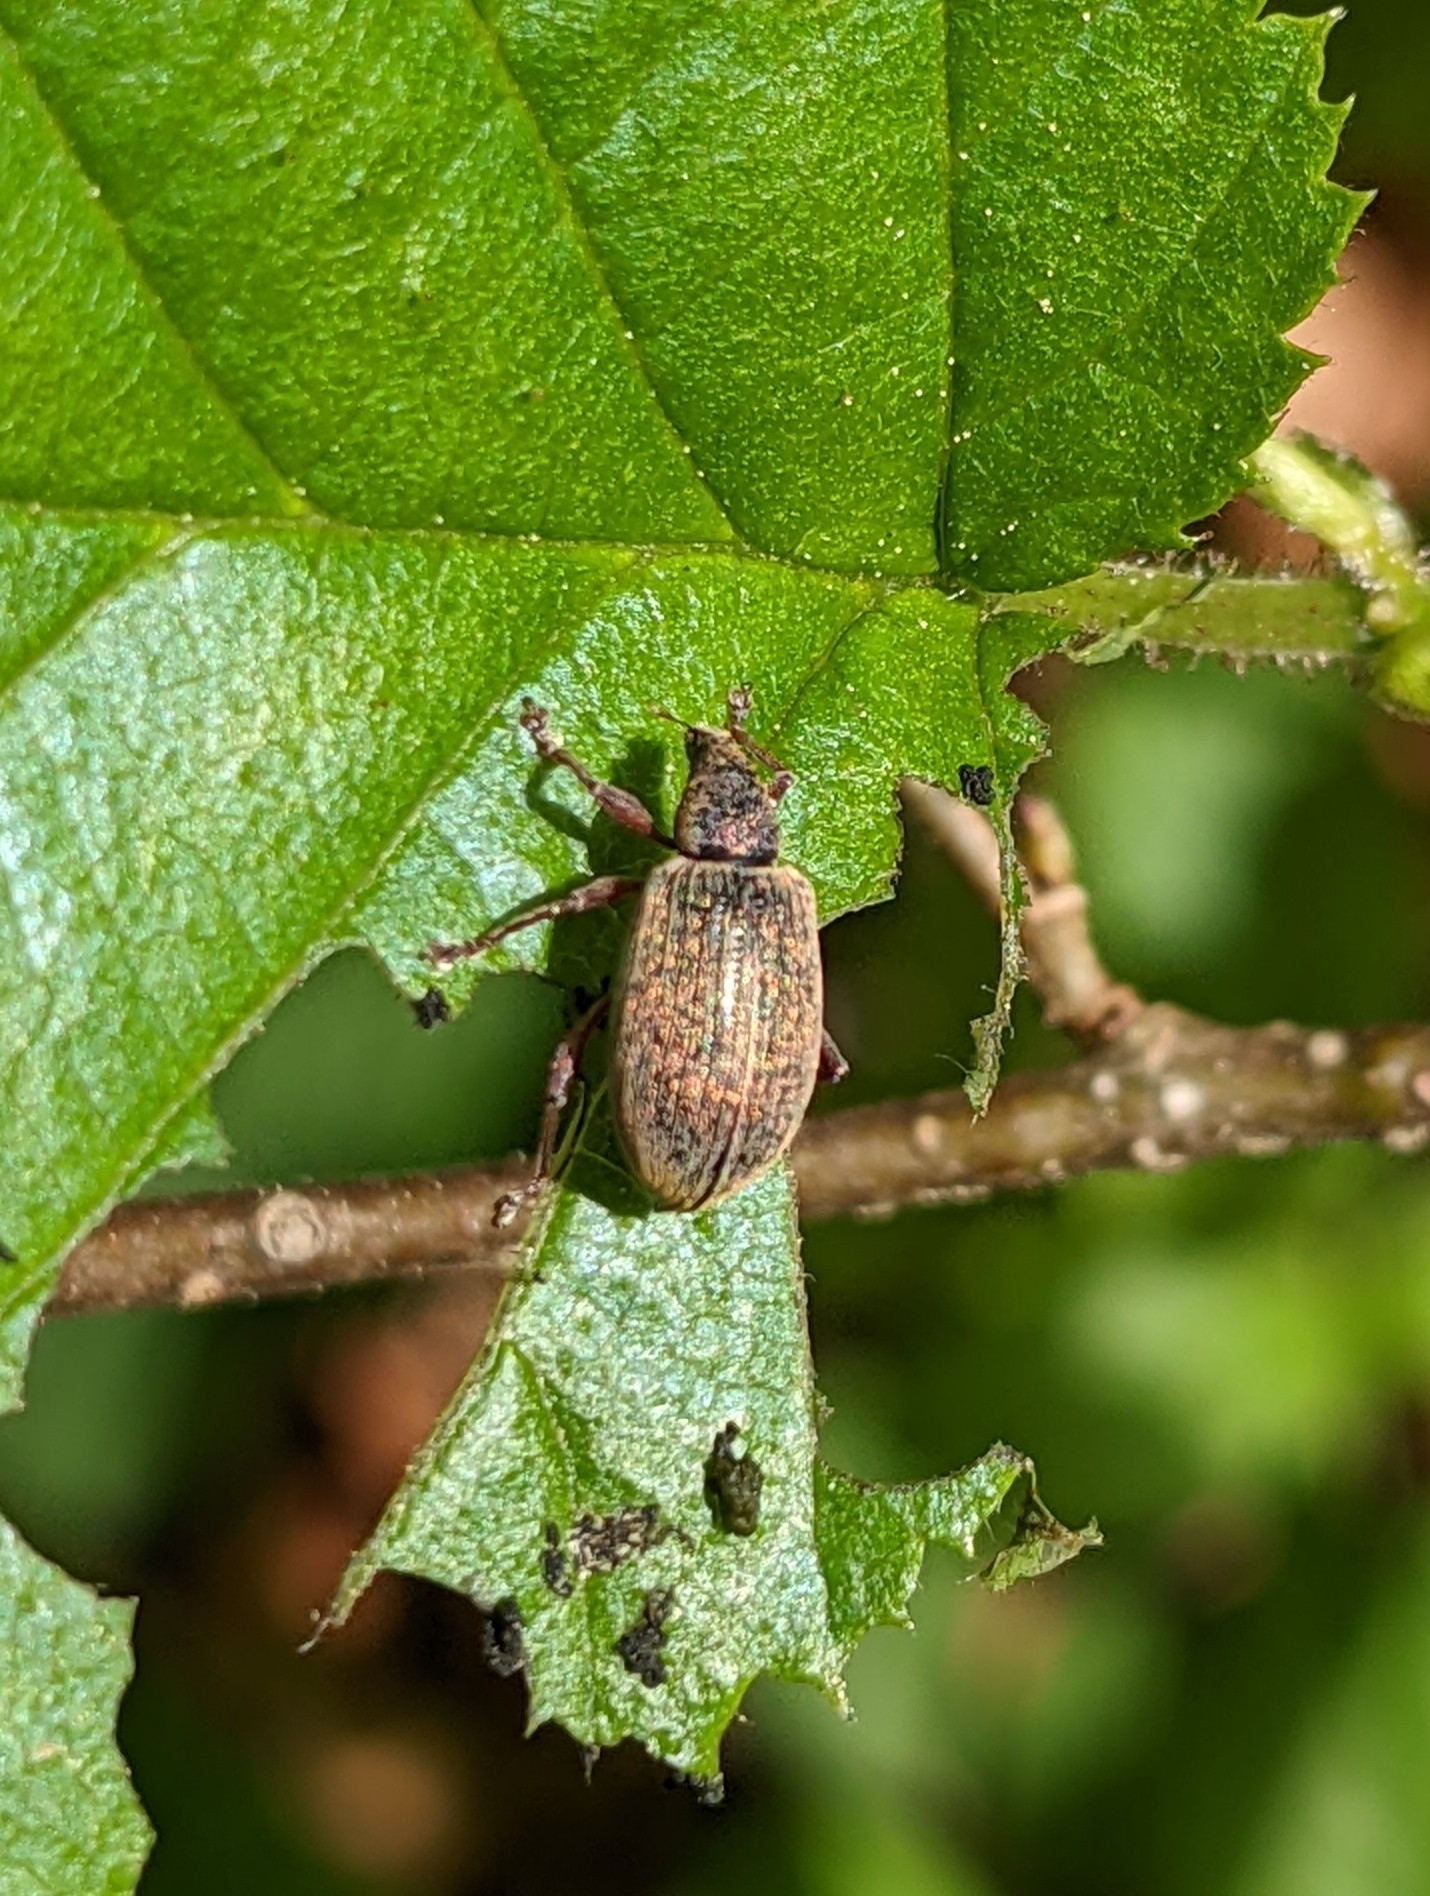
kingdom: Animalia
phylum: Arthropoda
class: Insecta
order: Coleoptera
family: Curculionidae
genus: Polydrusus
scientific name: Polydrusus mollis
